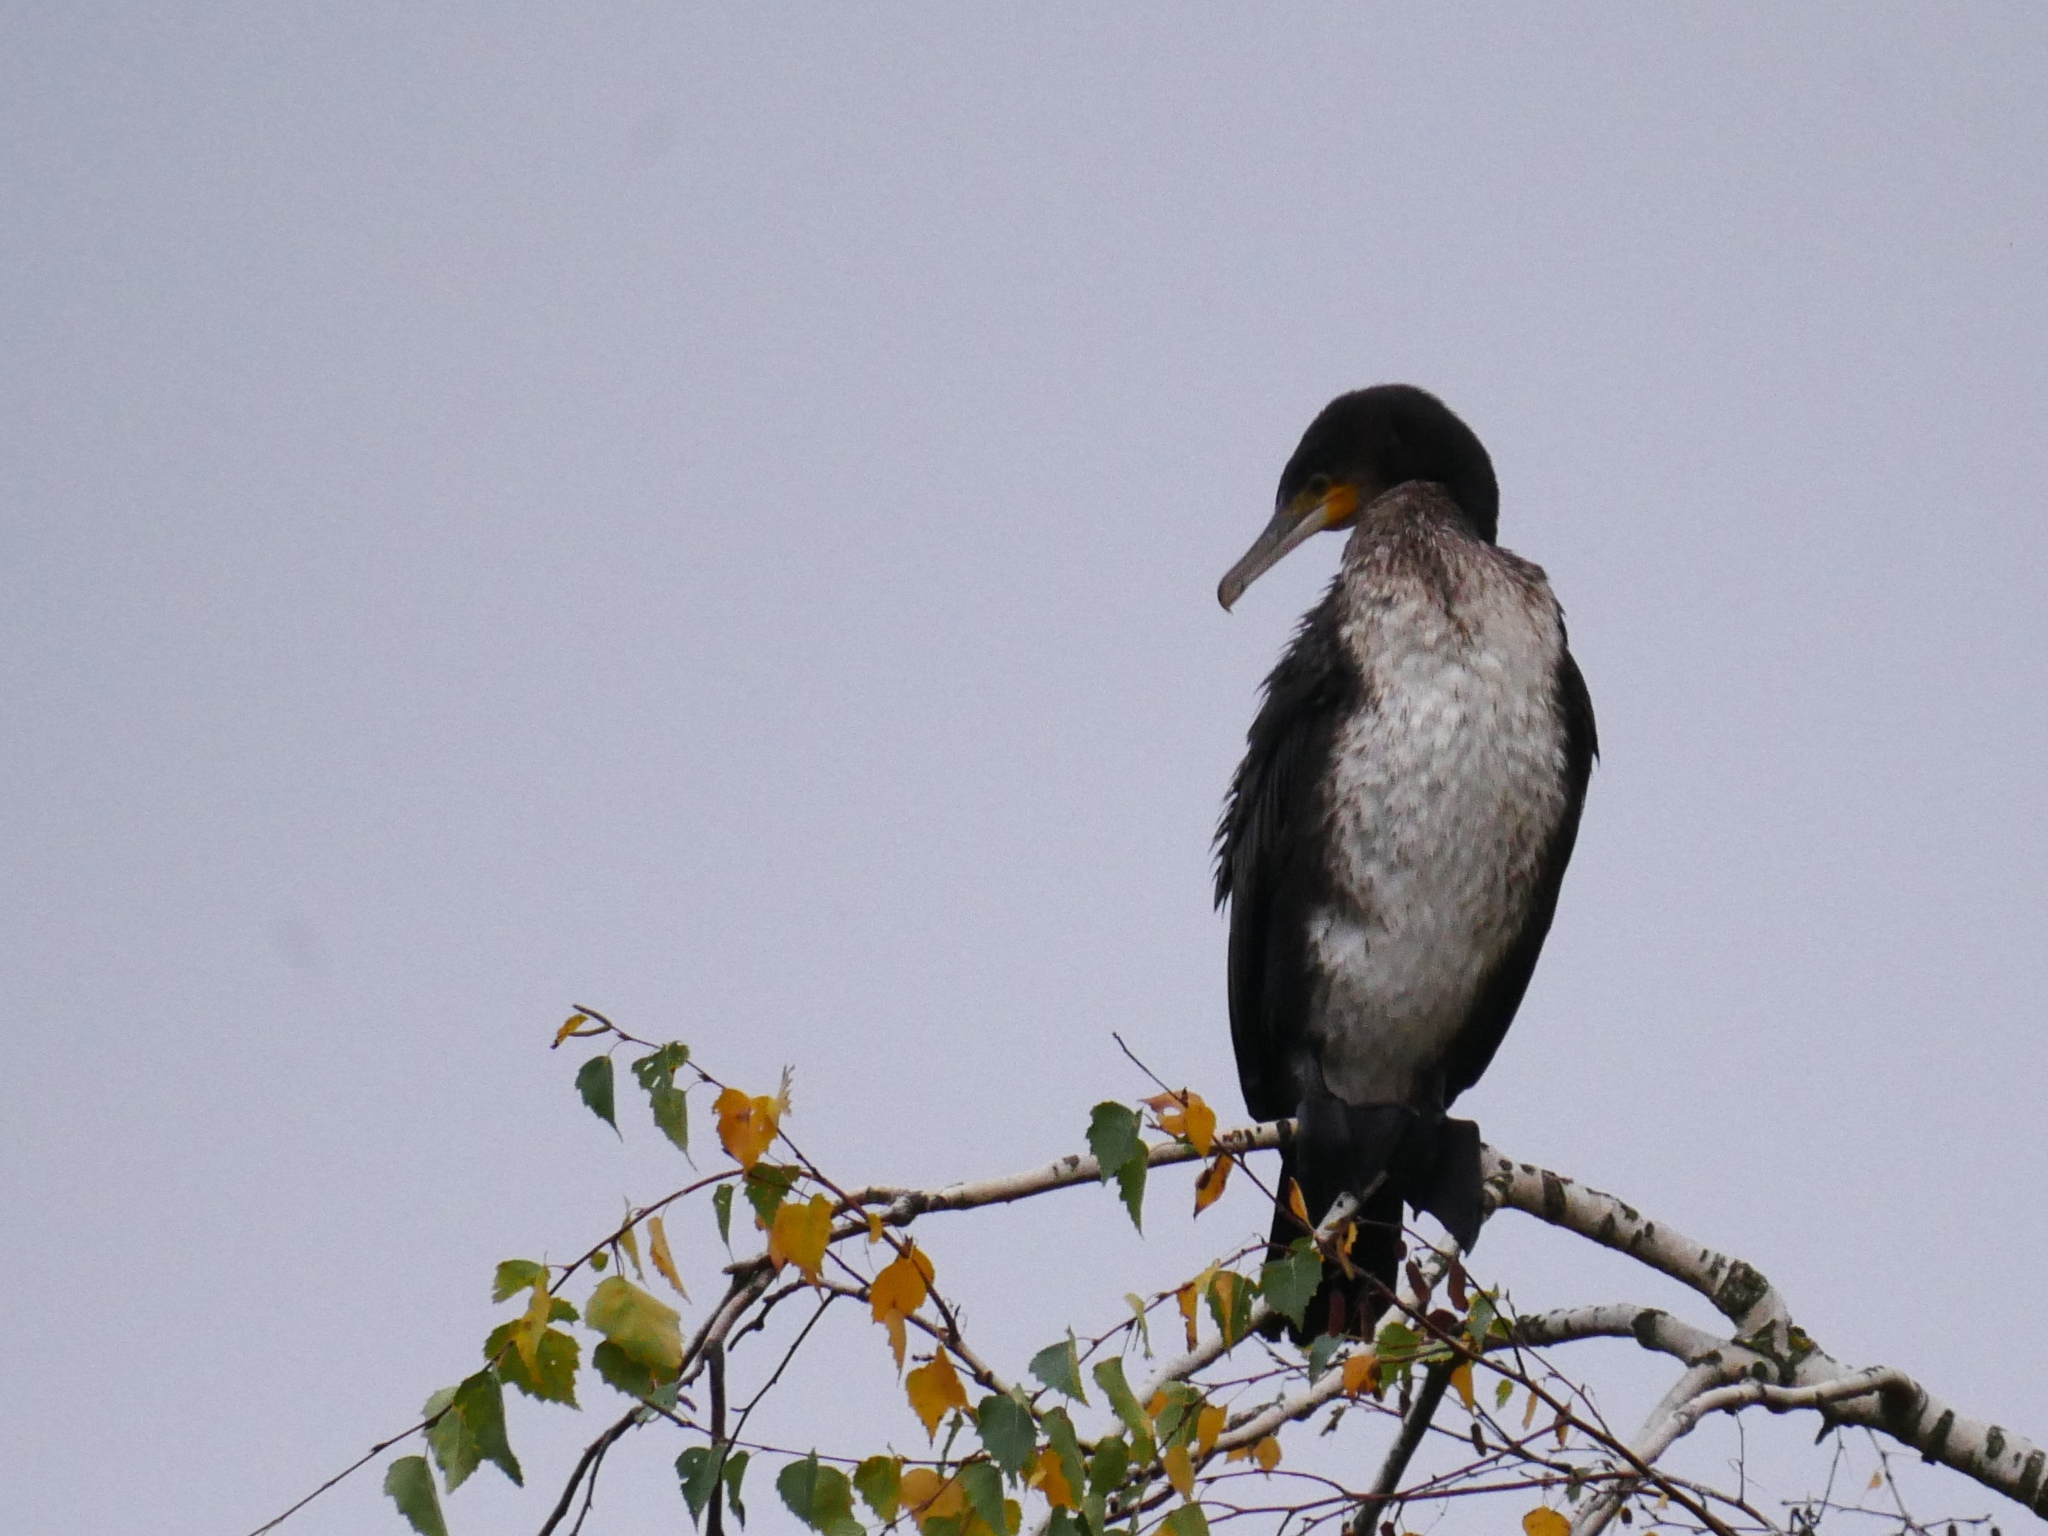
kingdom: Animalia
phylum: Chordata
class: Aves
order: Suliformes
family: Phalacrocoracidae
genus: Phalacrocorax
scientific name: Phalacrocorax carbo
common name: Great cormorant
